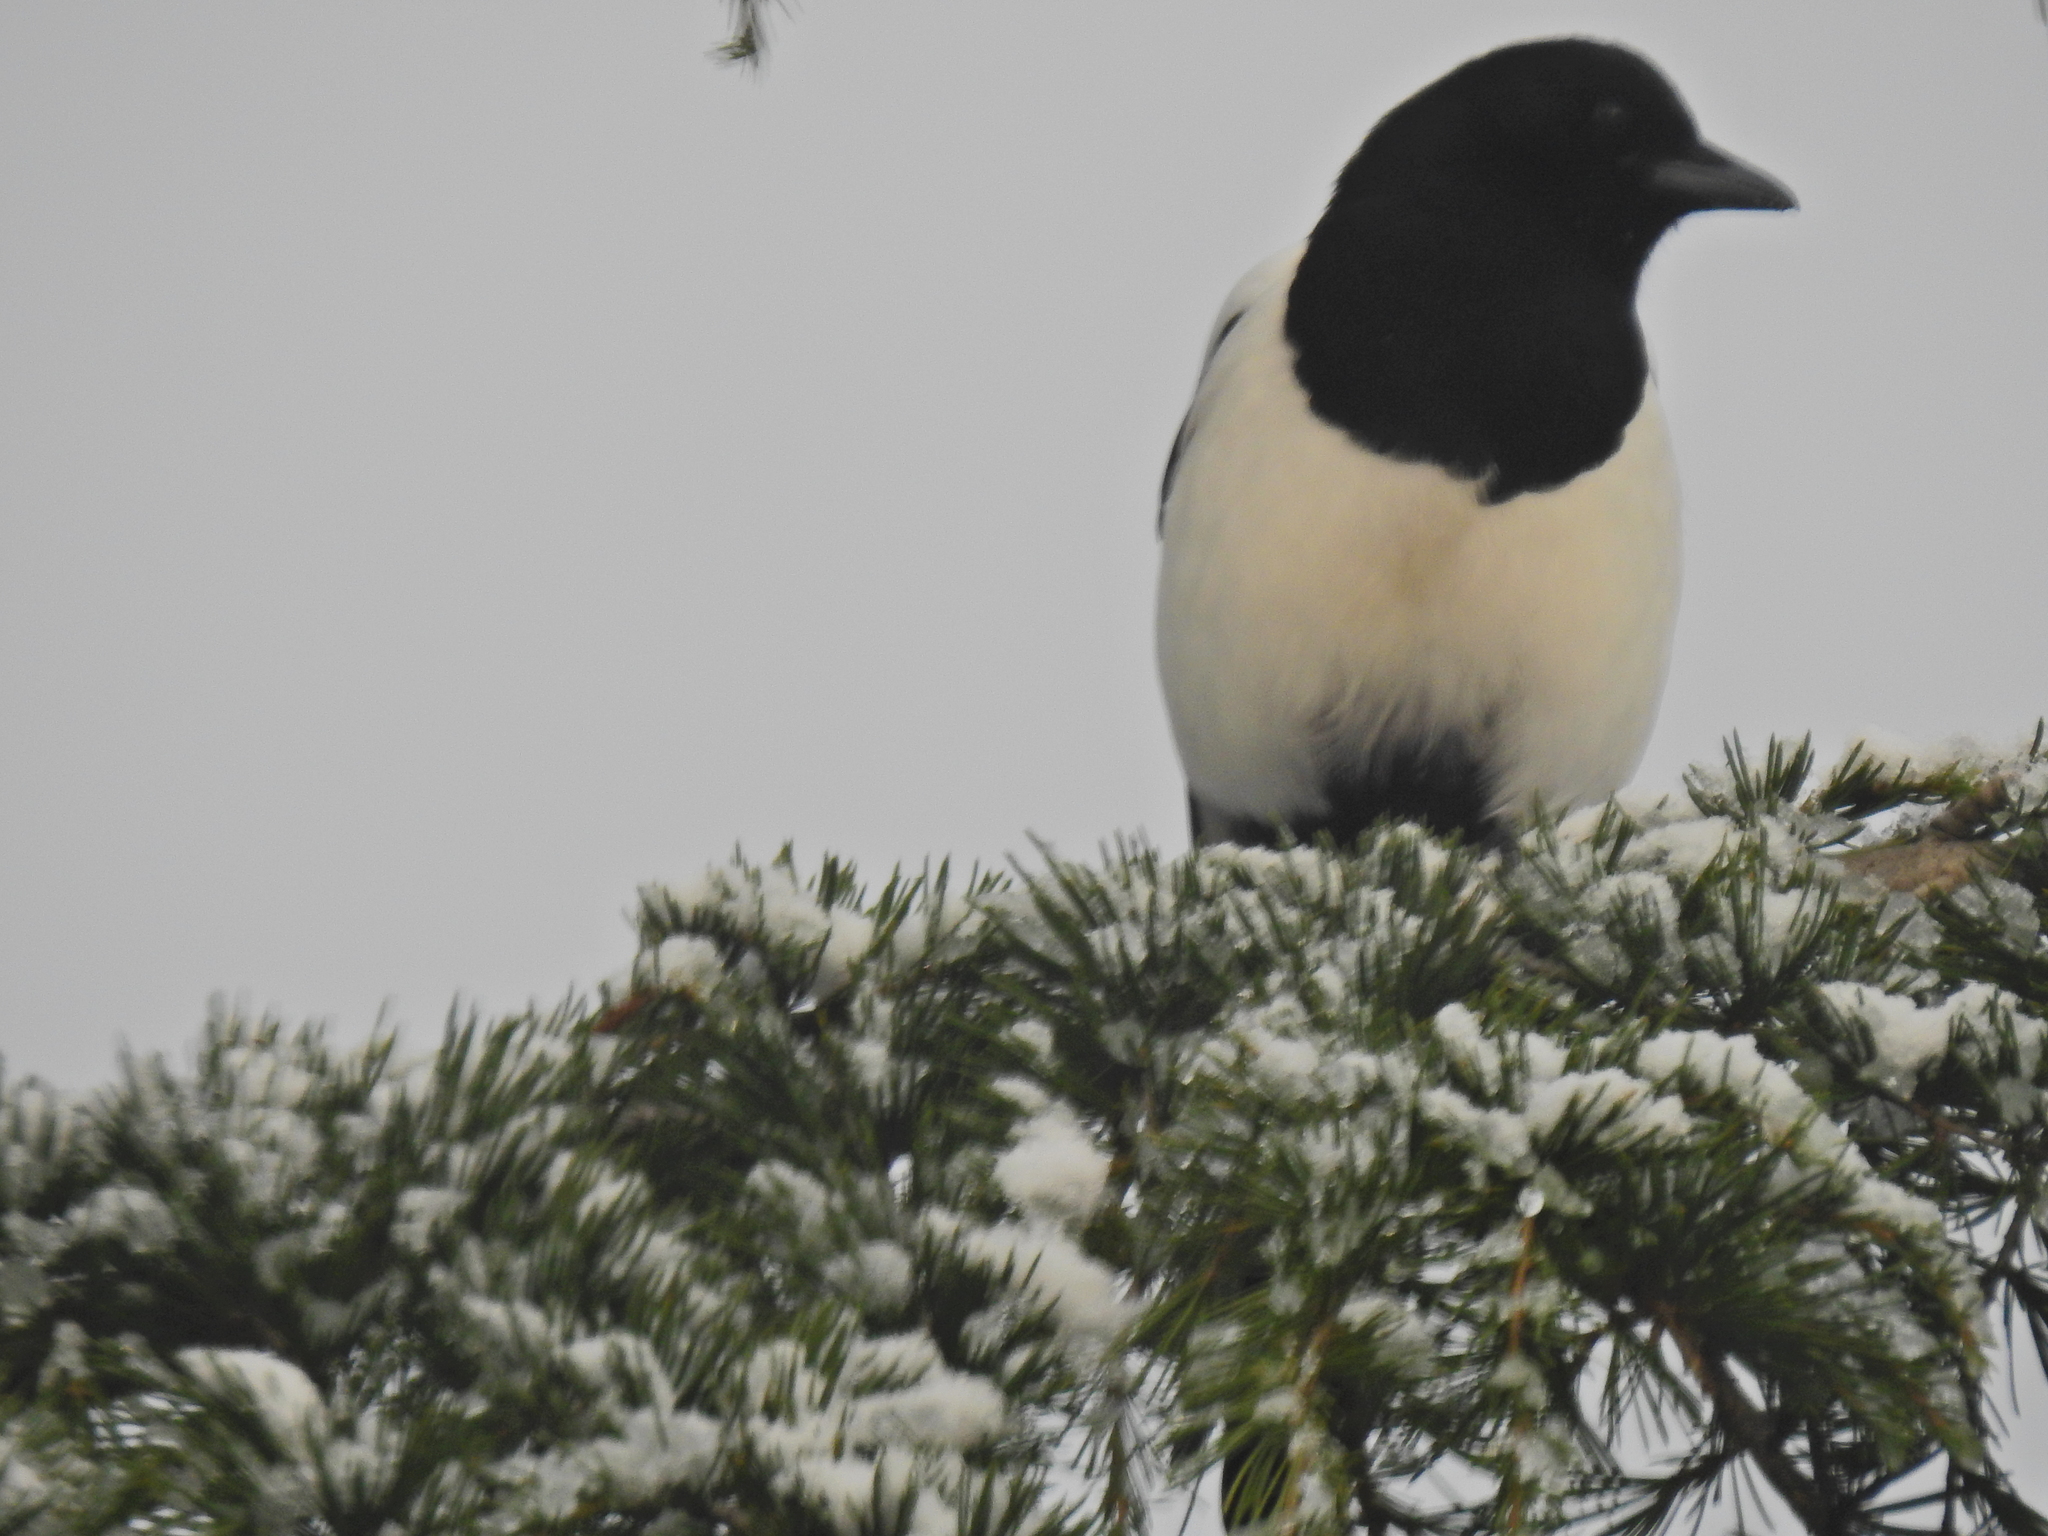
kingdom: Animalia
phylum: Chordata
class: Aves
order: Passeriformes
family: Corvidae
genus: Pica
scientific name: Pica pica
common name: Eurasian magpie
